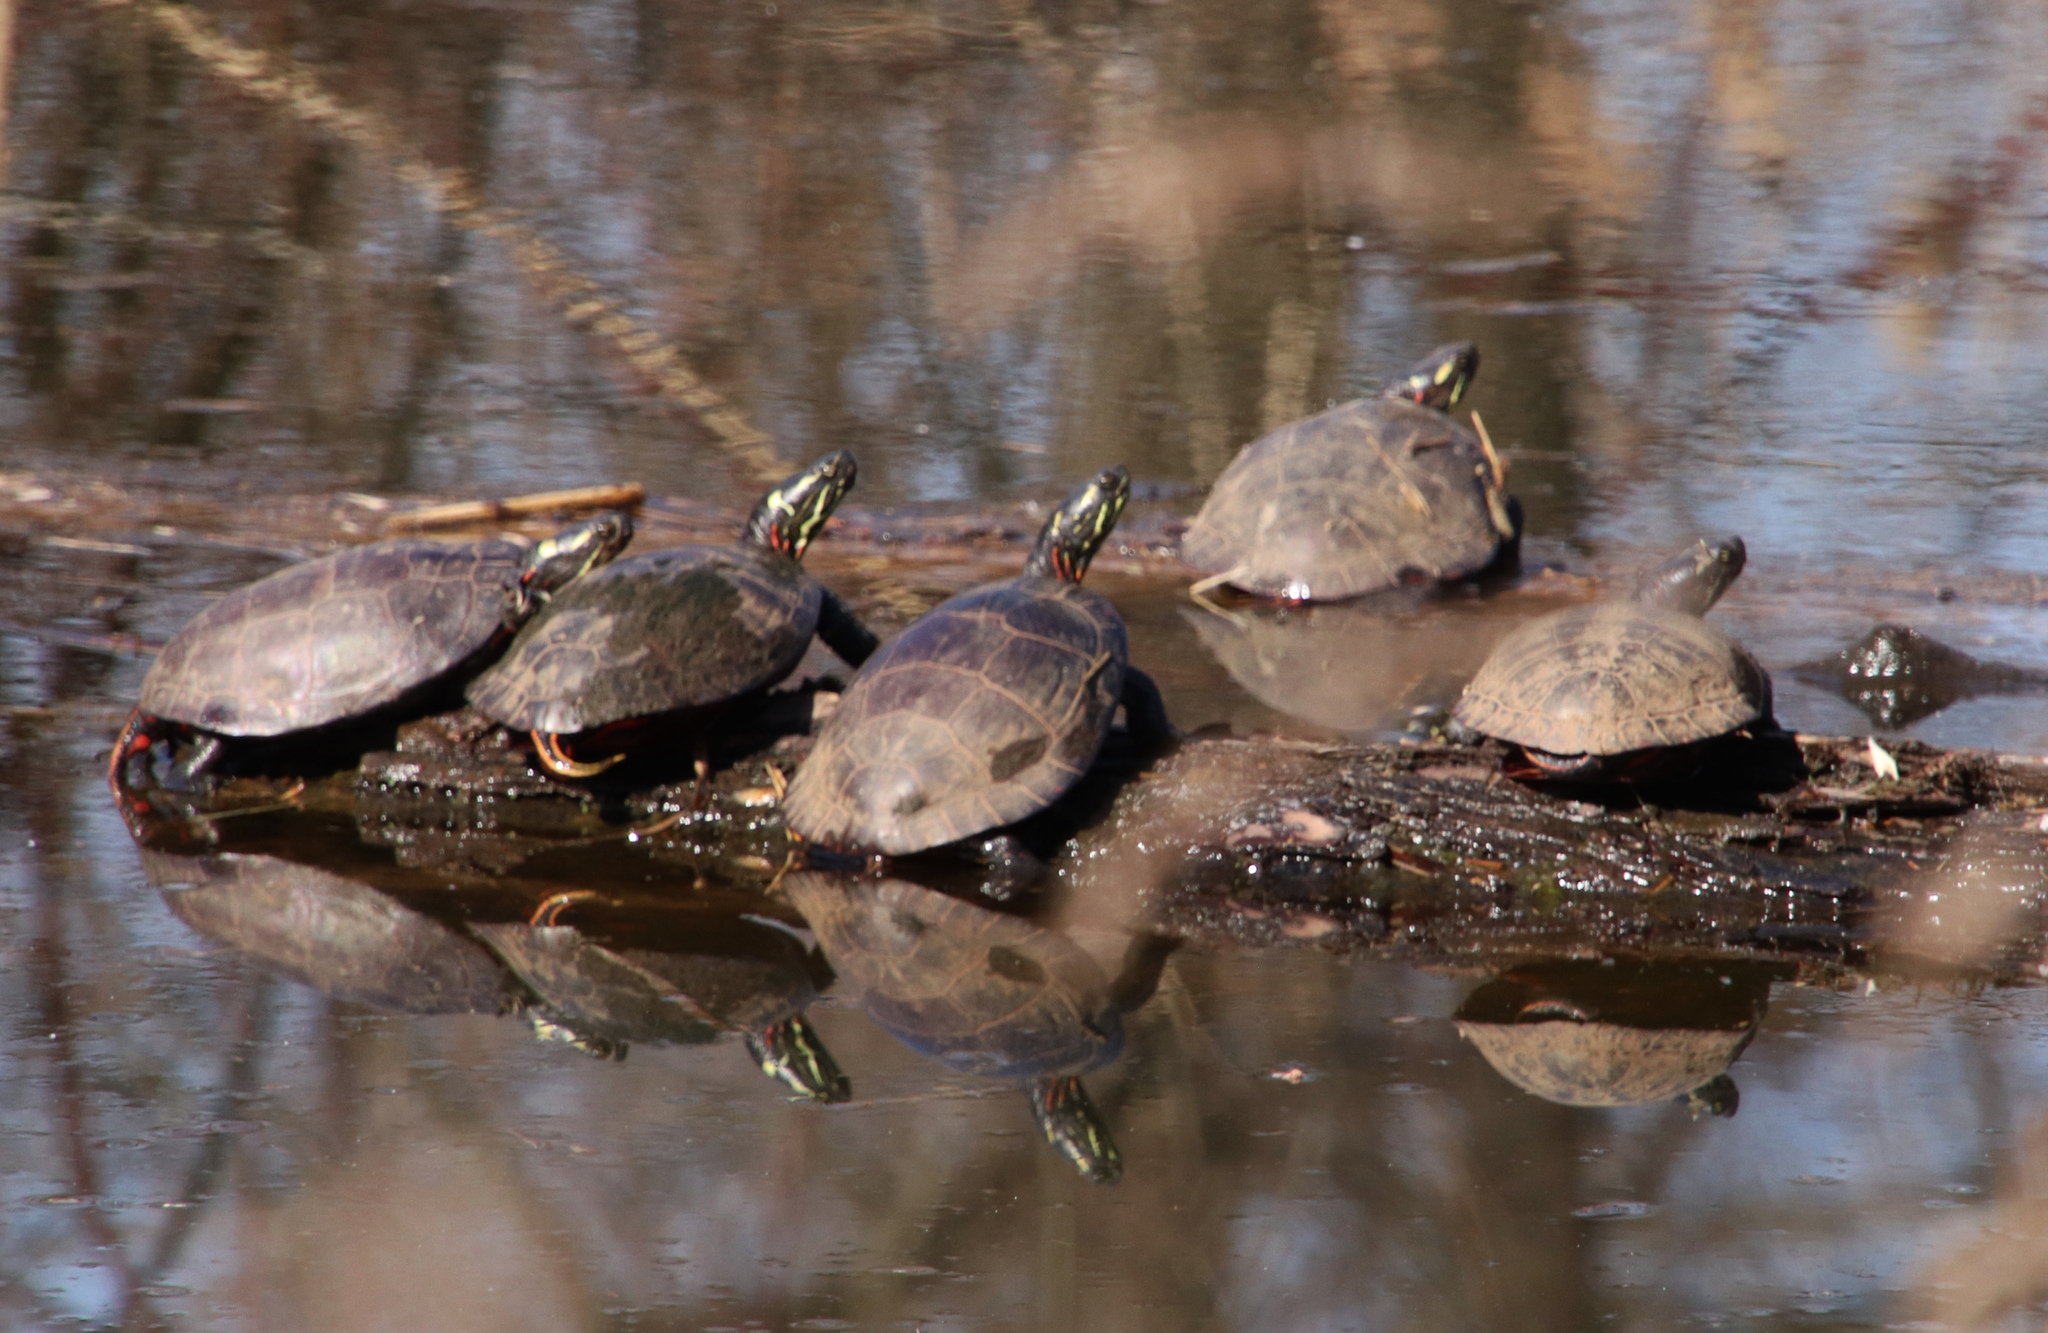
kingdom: Animalia
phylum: Chordata
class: Testudines
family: Emydidae
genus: Chrysemys
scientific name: Chrysemys picta
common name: Painted turtle
